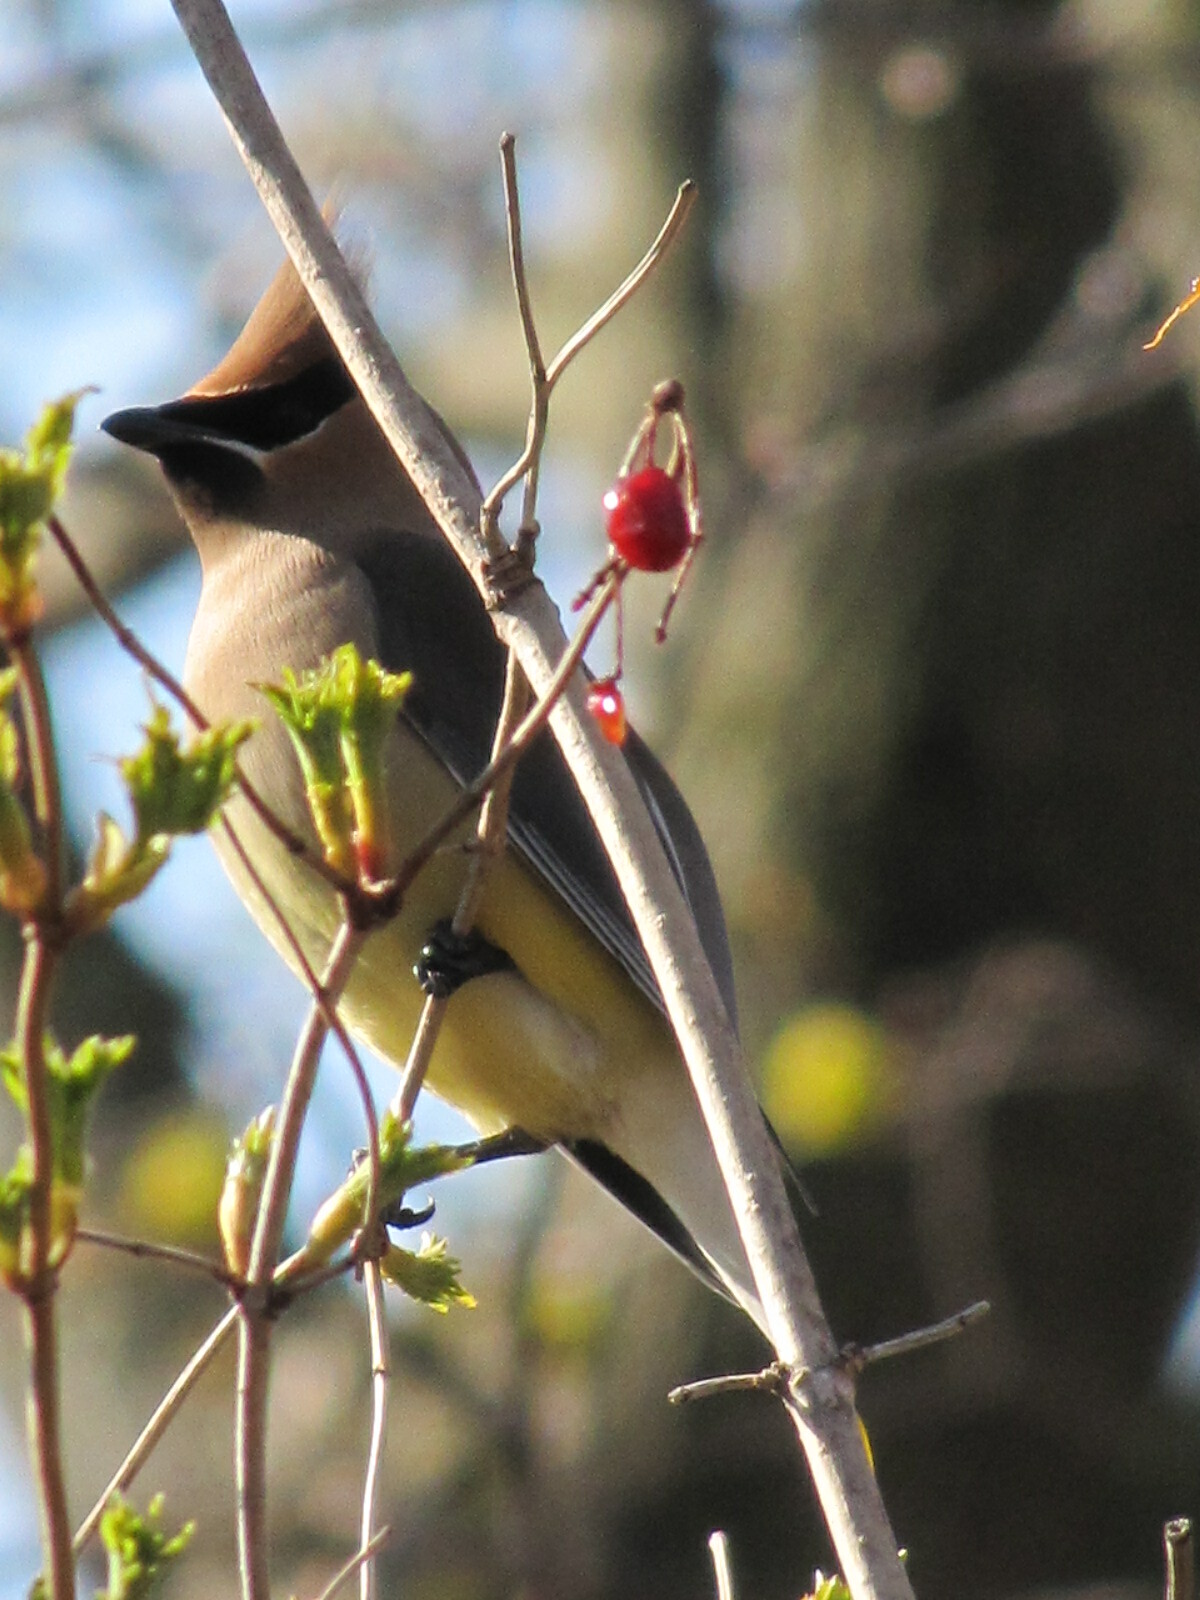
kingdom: Animalia
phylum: Chordata
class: Aves
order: Passeriformes
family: Bombycillidae
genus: Bombycilla
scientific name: Bombycilla cedrorum
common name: Cedar waxwing
